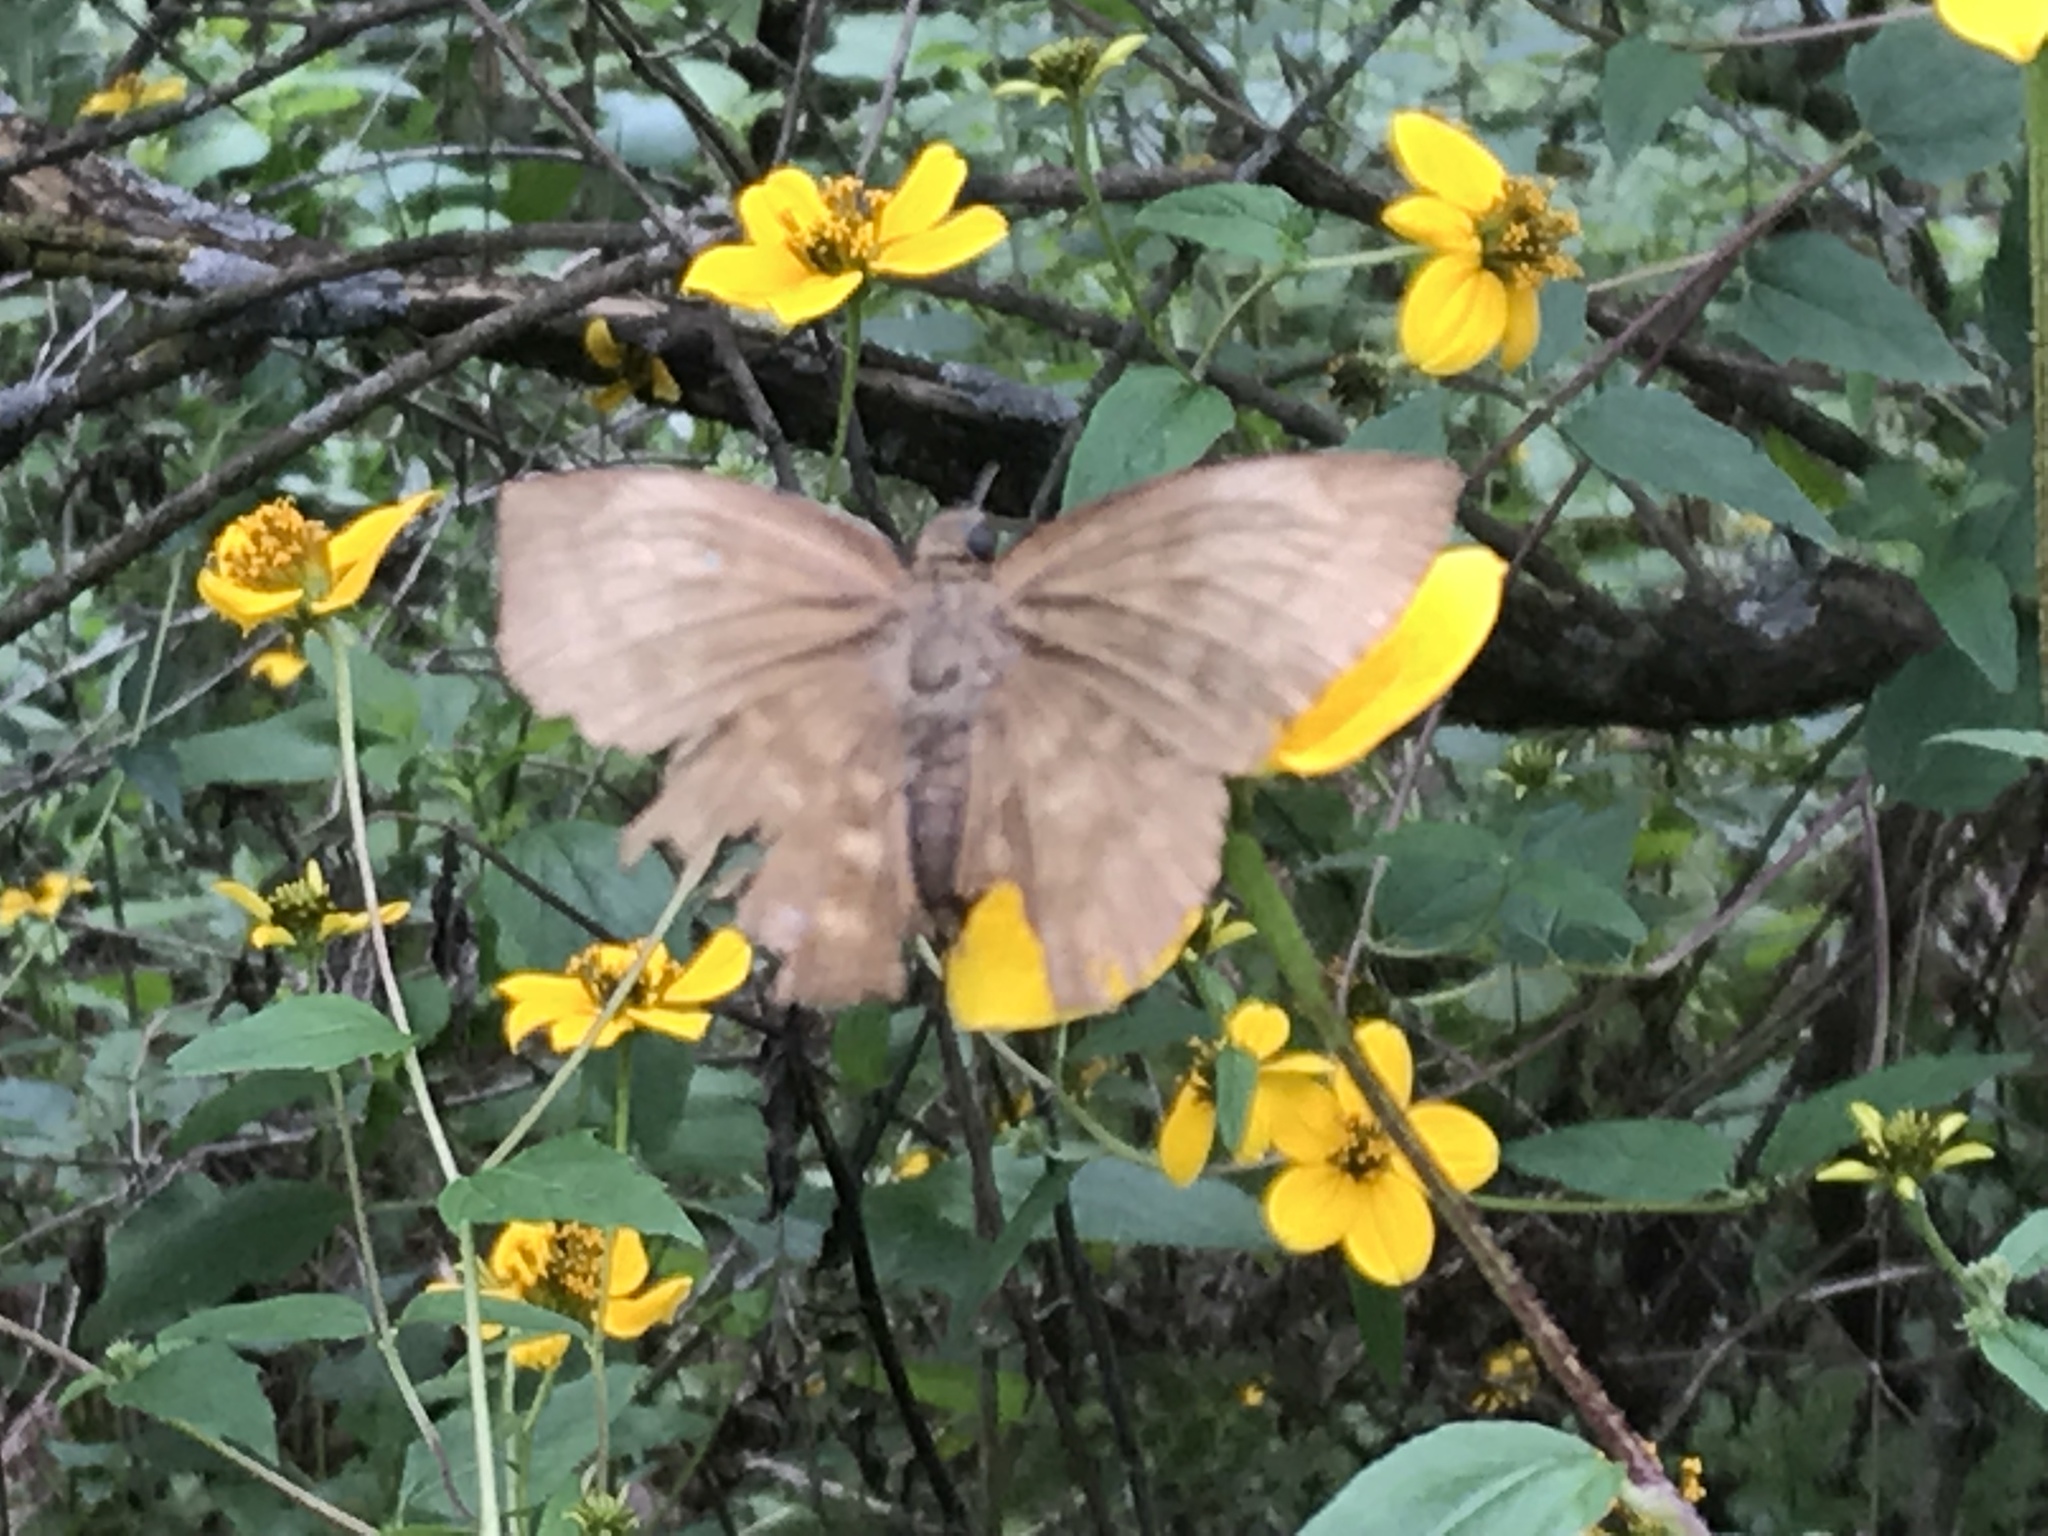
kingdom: Animalia
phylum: Arthropoda
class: Insecta
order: Lepidoptera
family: Hesperiidae
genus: Achlyodes
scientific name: Achlyodes pallida
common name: Pale sicklewing
